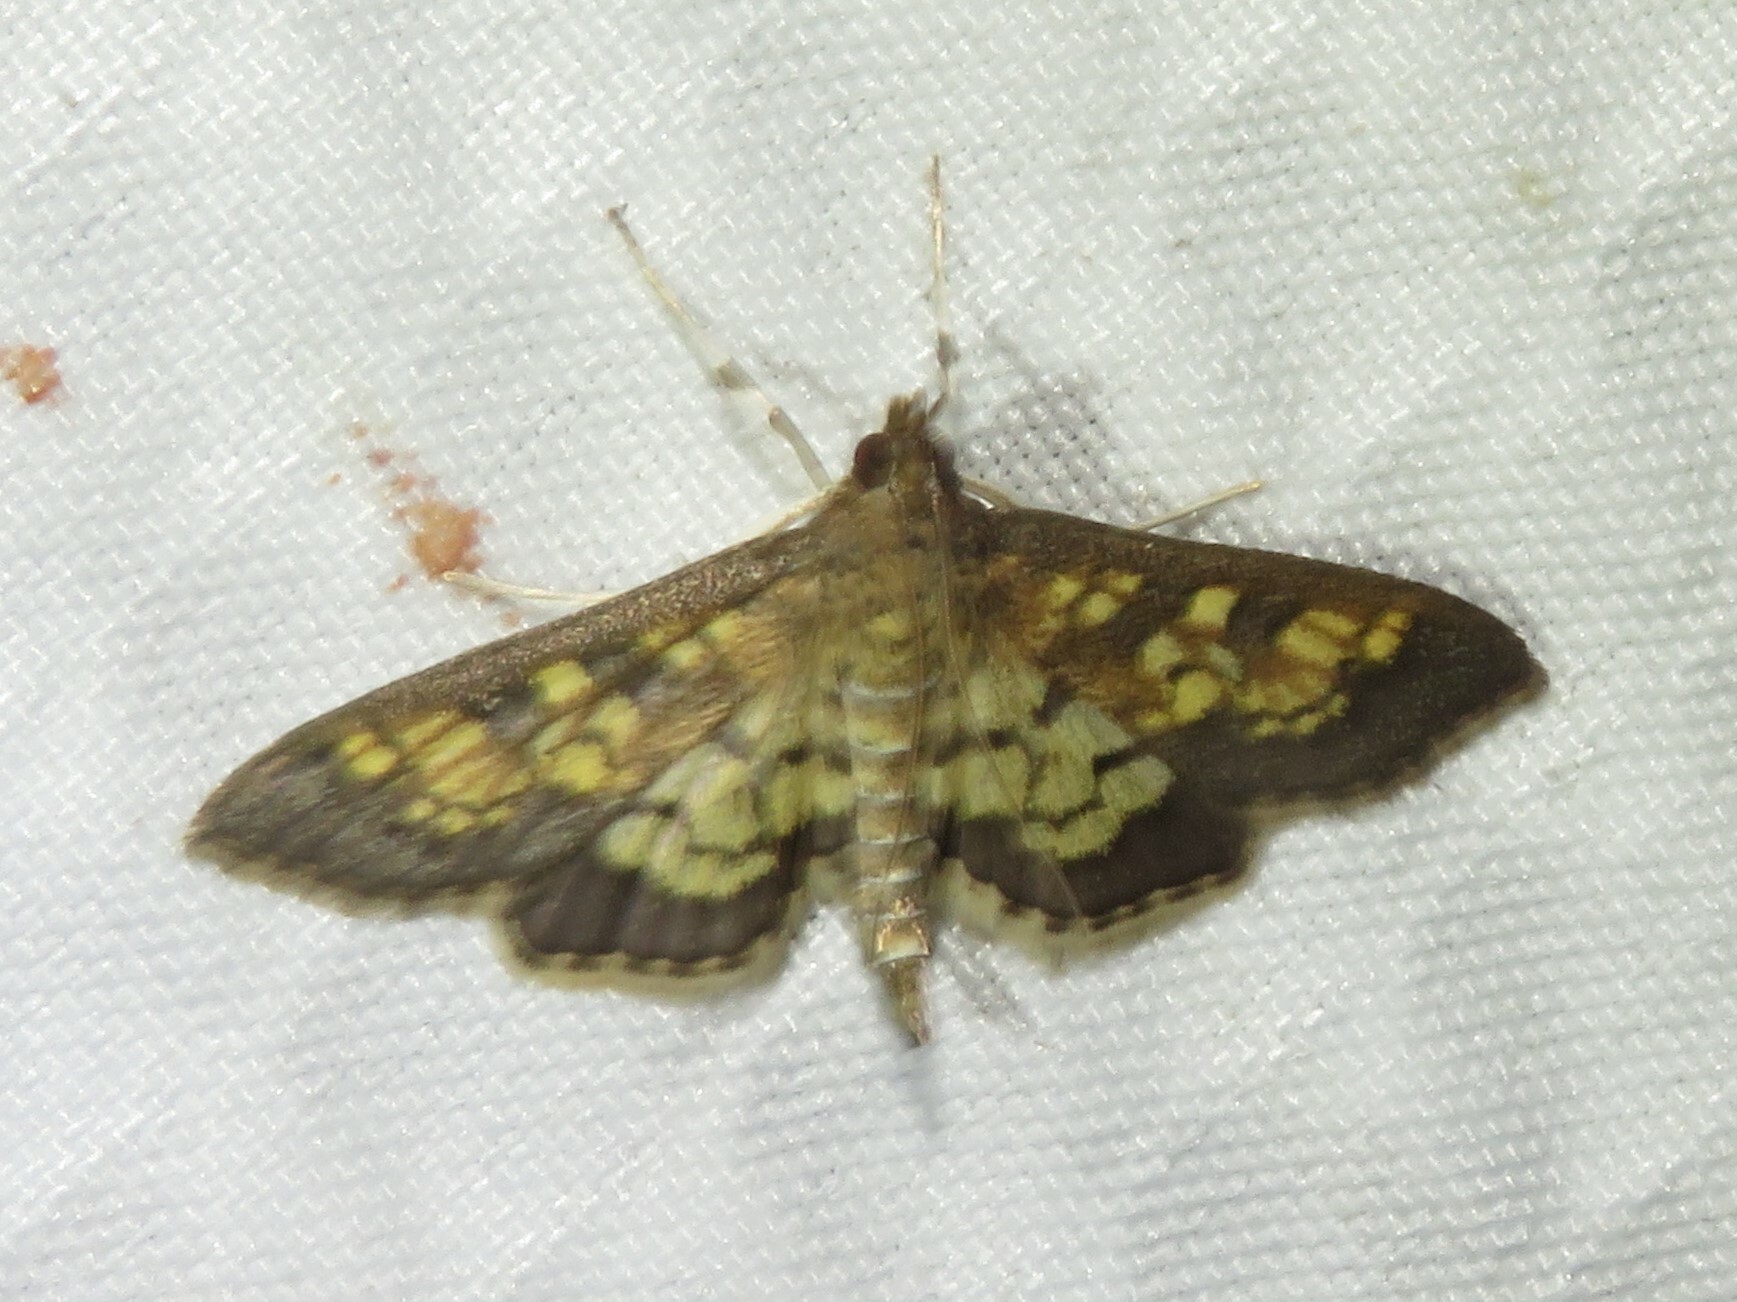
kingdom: Animalia
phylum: Arthropoda
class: Insecta
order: Lepidoptera
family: Crambidae
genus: Epipagis
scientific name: Epipagis adipaloides
